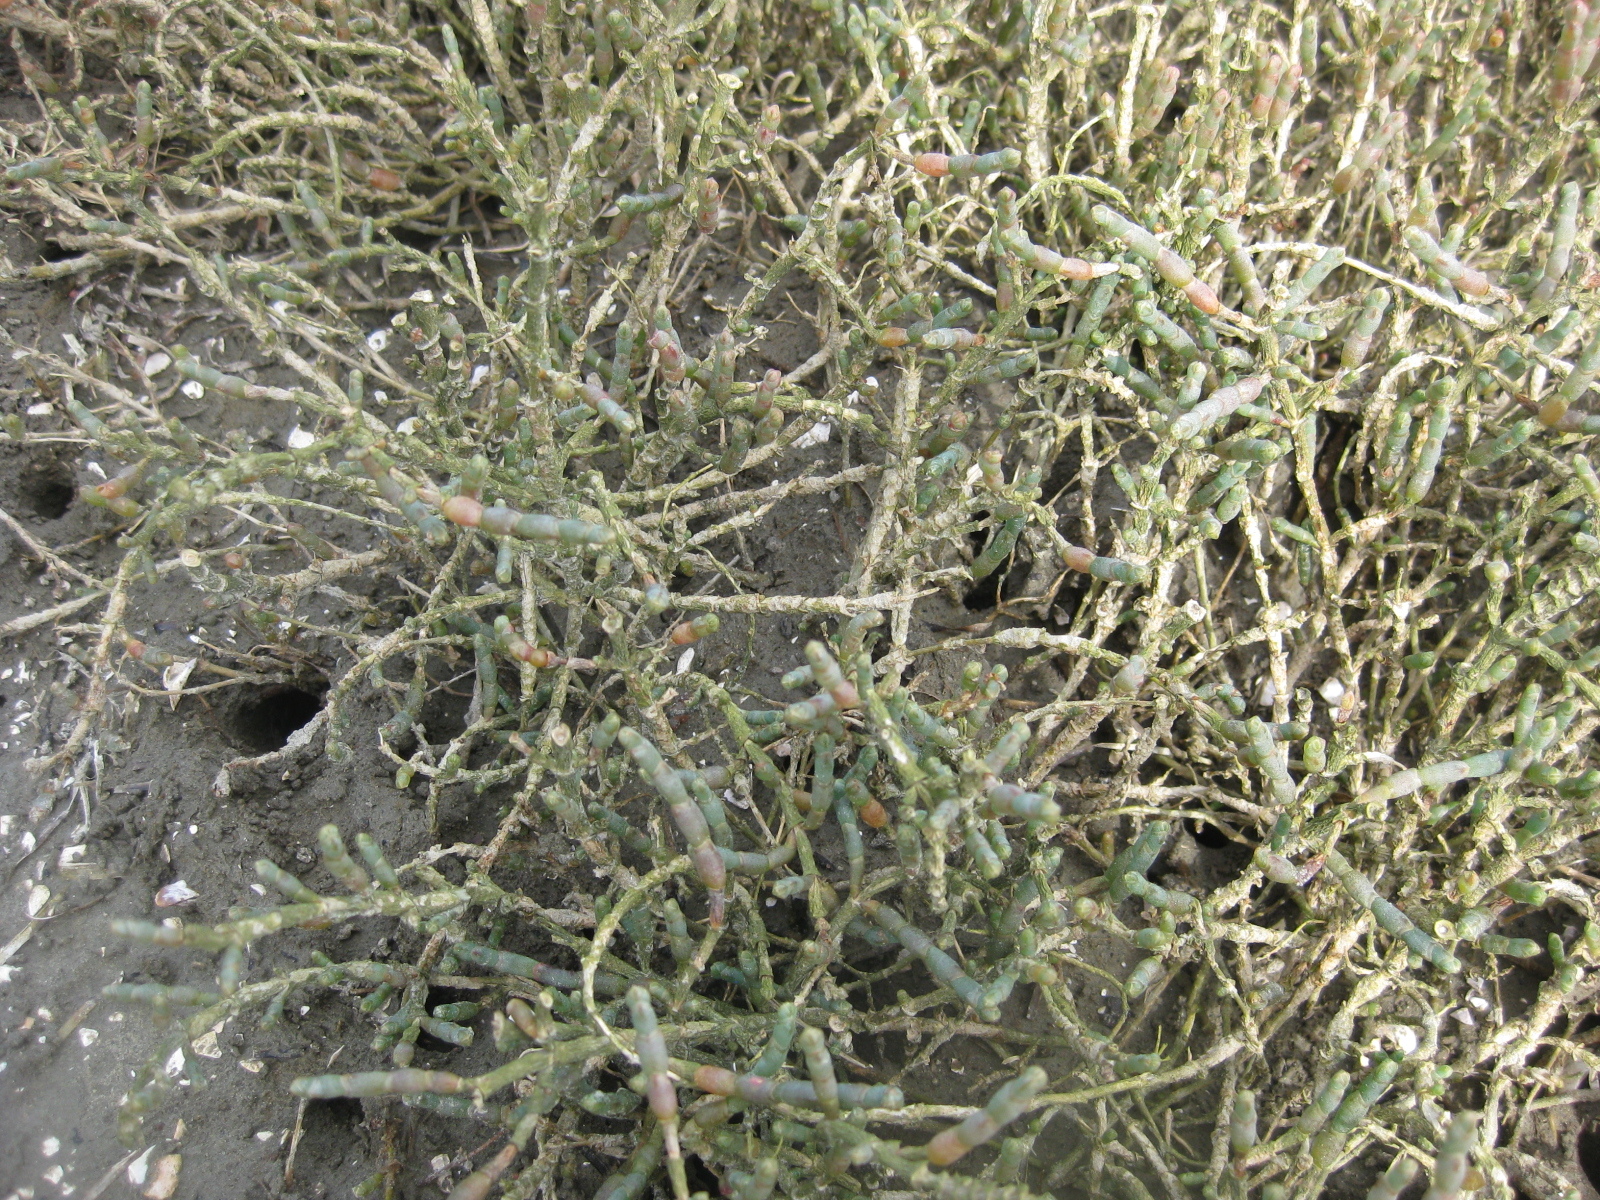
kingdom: Plantae
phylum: Tracheophyta
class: Magnoliopsida
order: Caryophyllales
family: Amaranthaceae
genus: Salicornia
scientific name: Salicornia quinqueflora
